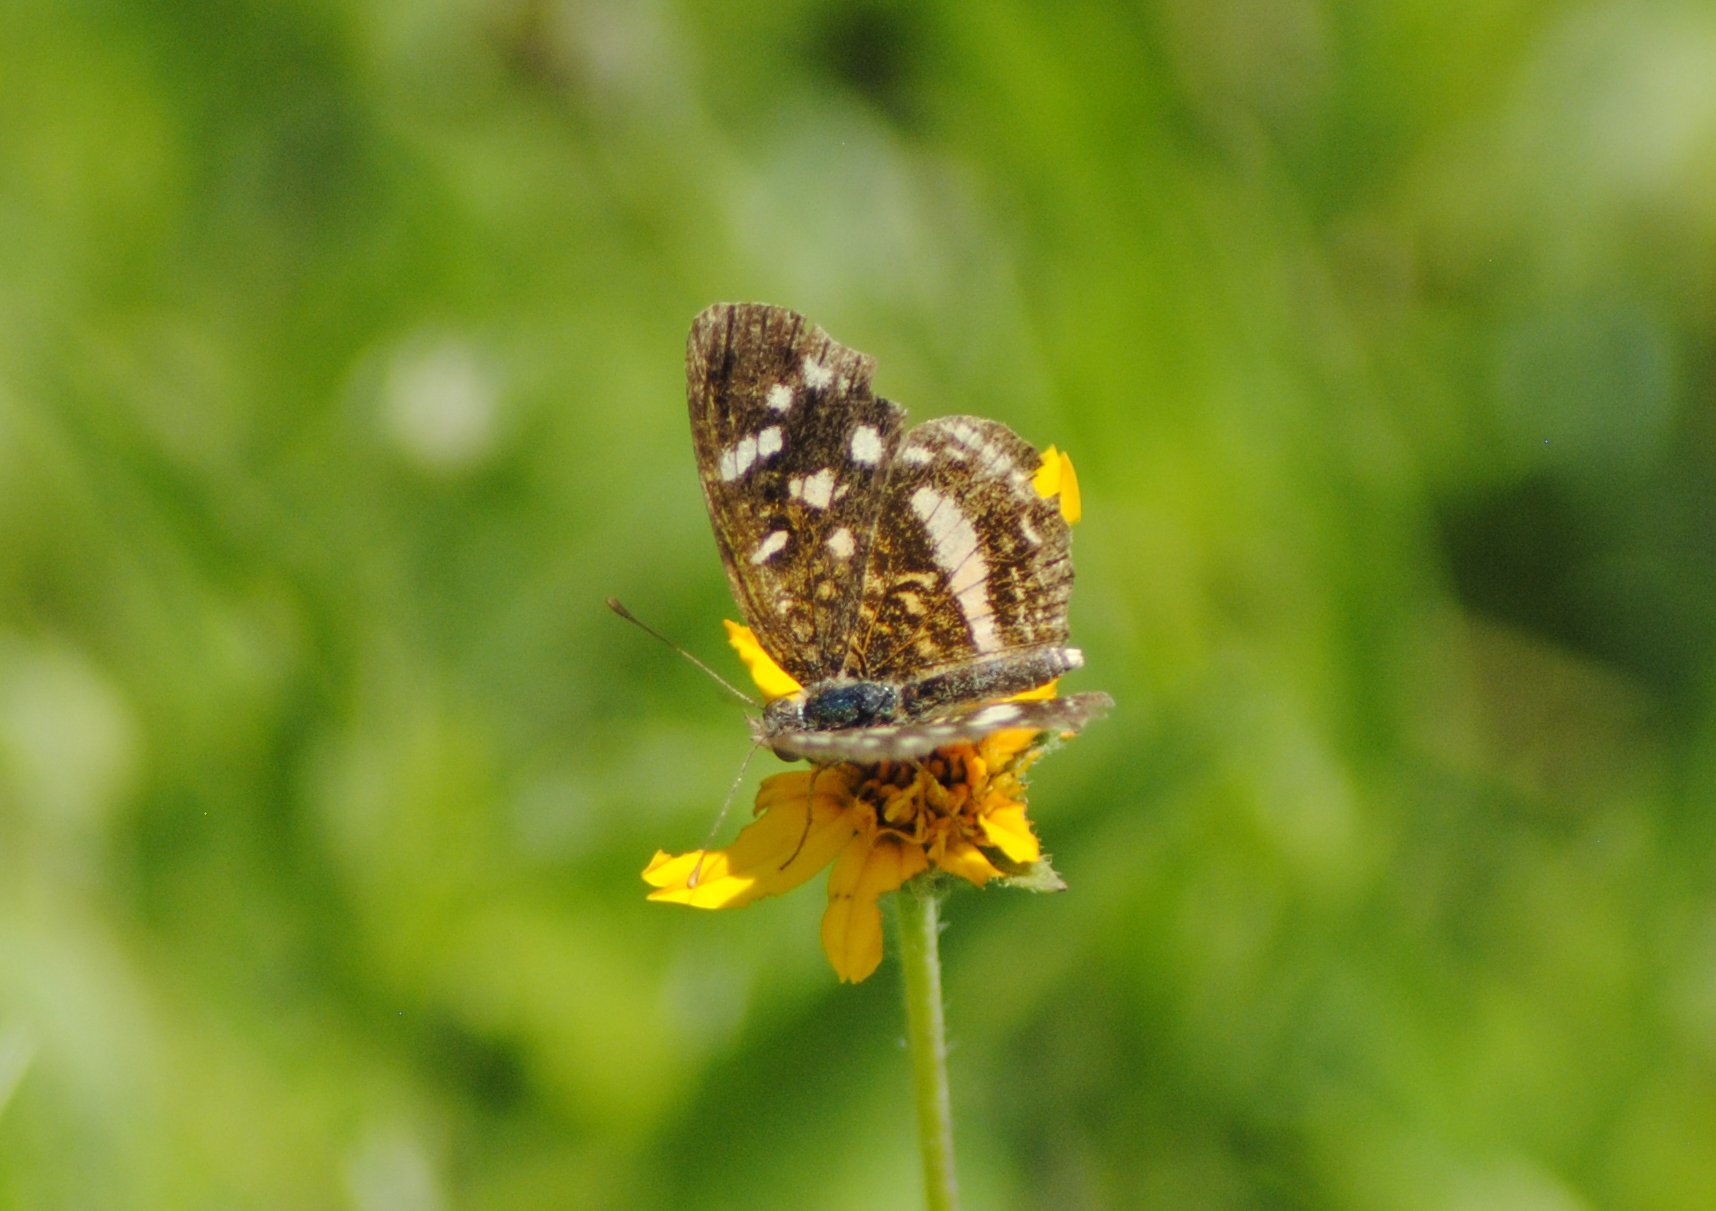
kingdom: Animalia
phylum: Arthropoda
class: Insecta
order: Lepidoptera
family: Nymphalidae
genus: Anthanassa
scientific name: Anthanassa tulcis
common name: Pale-banded crescent
